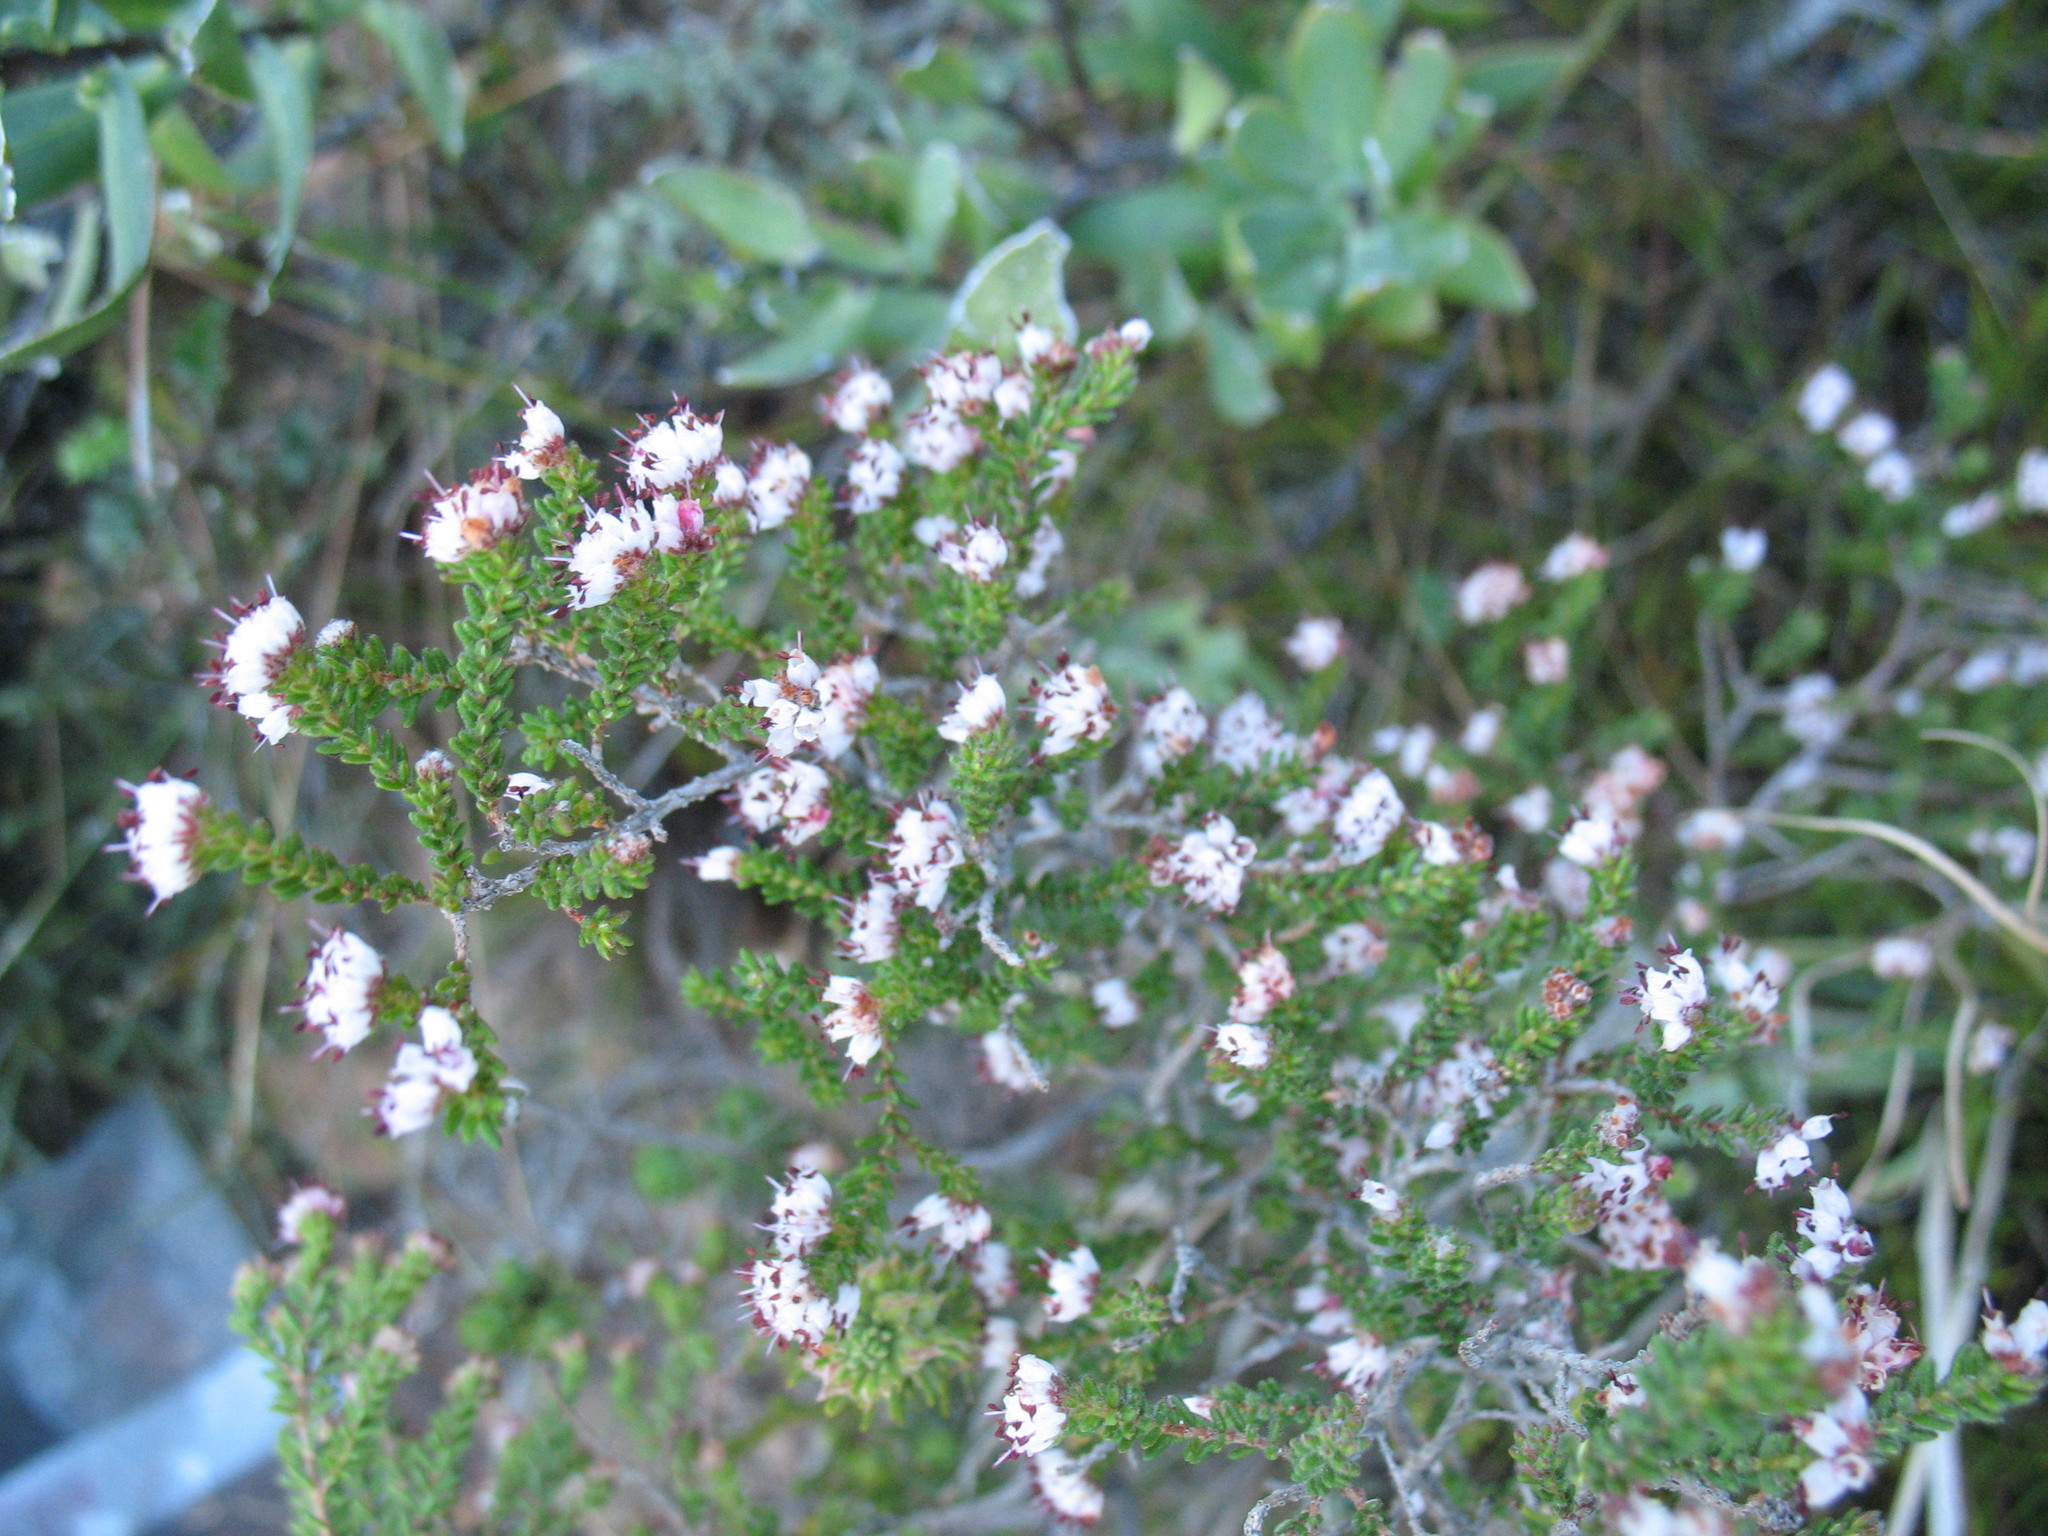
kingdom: Plantae
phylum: Tracheophyta
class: Magnoliopsida
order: Ericales
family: Ericaceae
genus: Erica
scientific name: Erica ericoides
